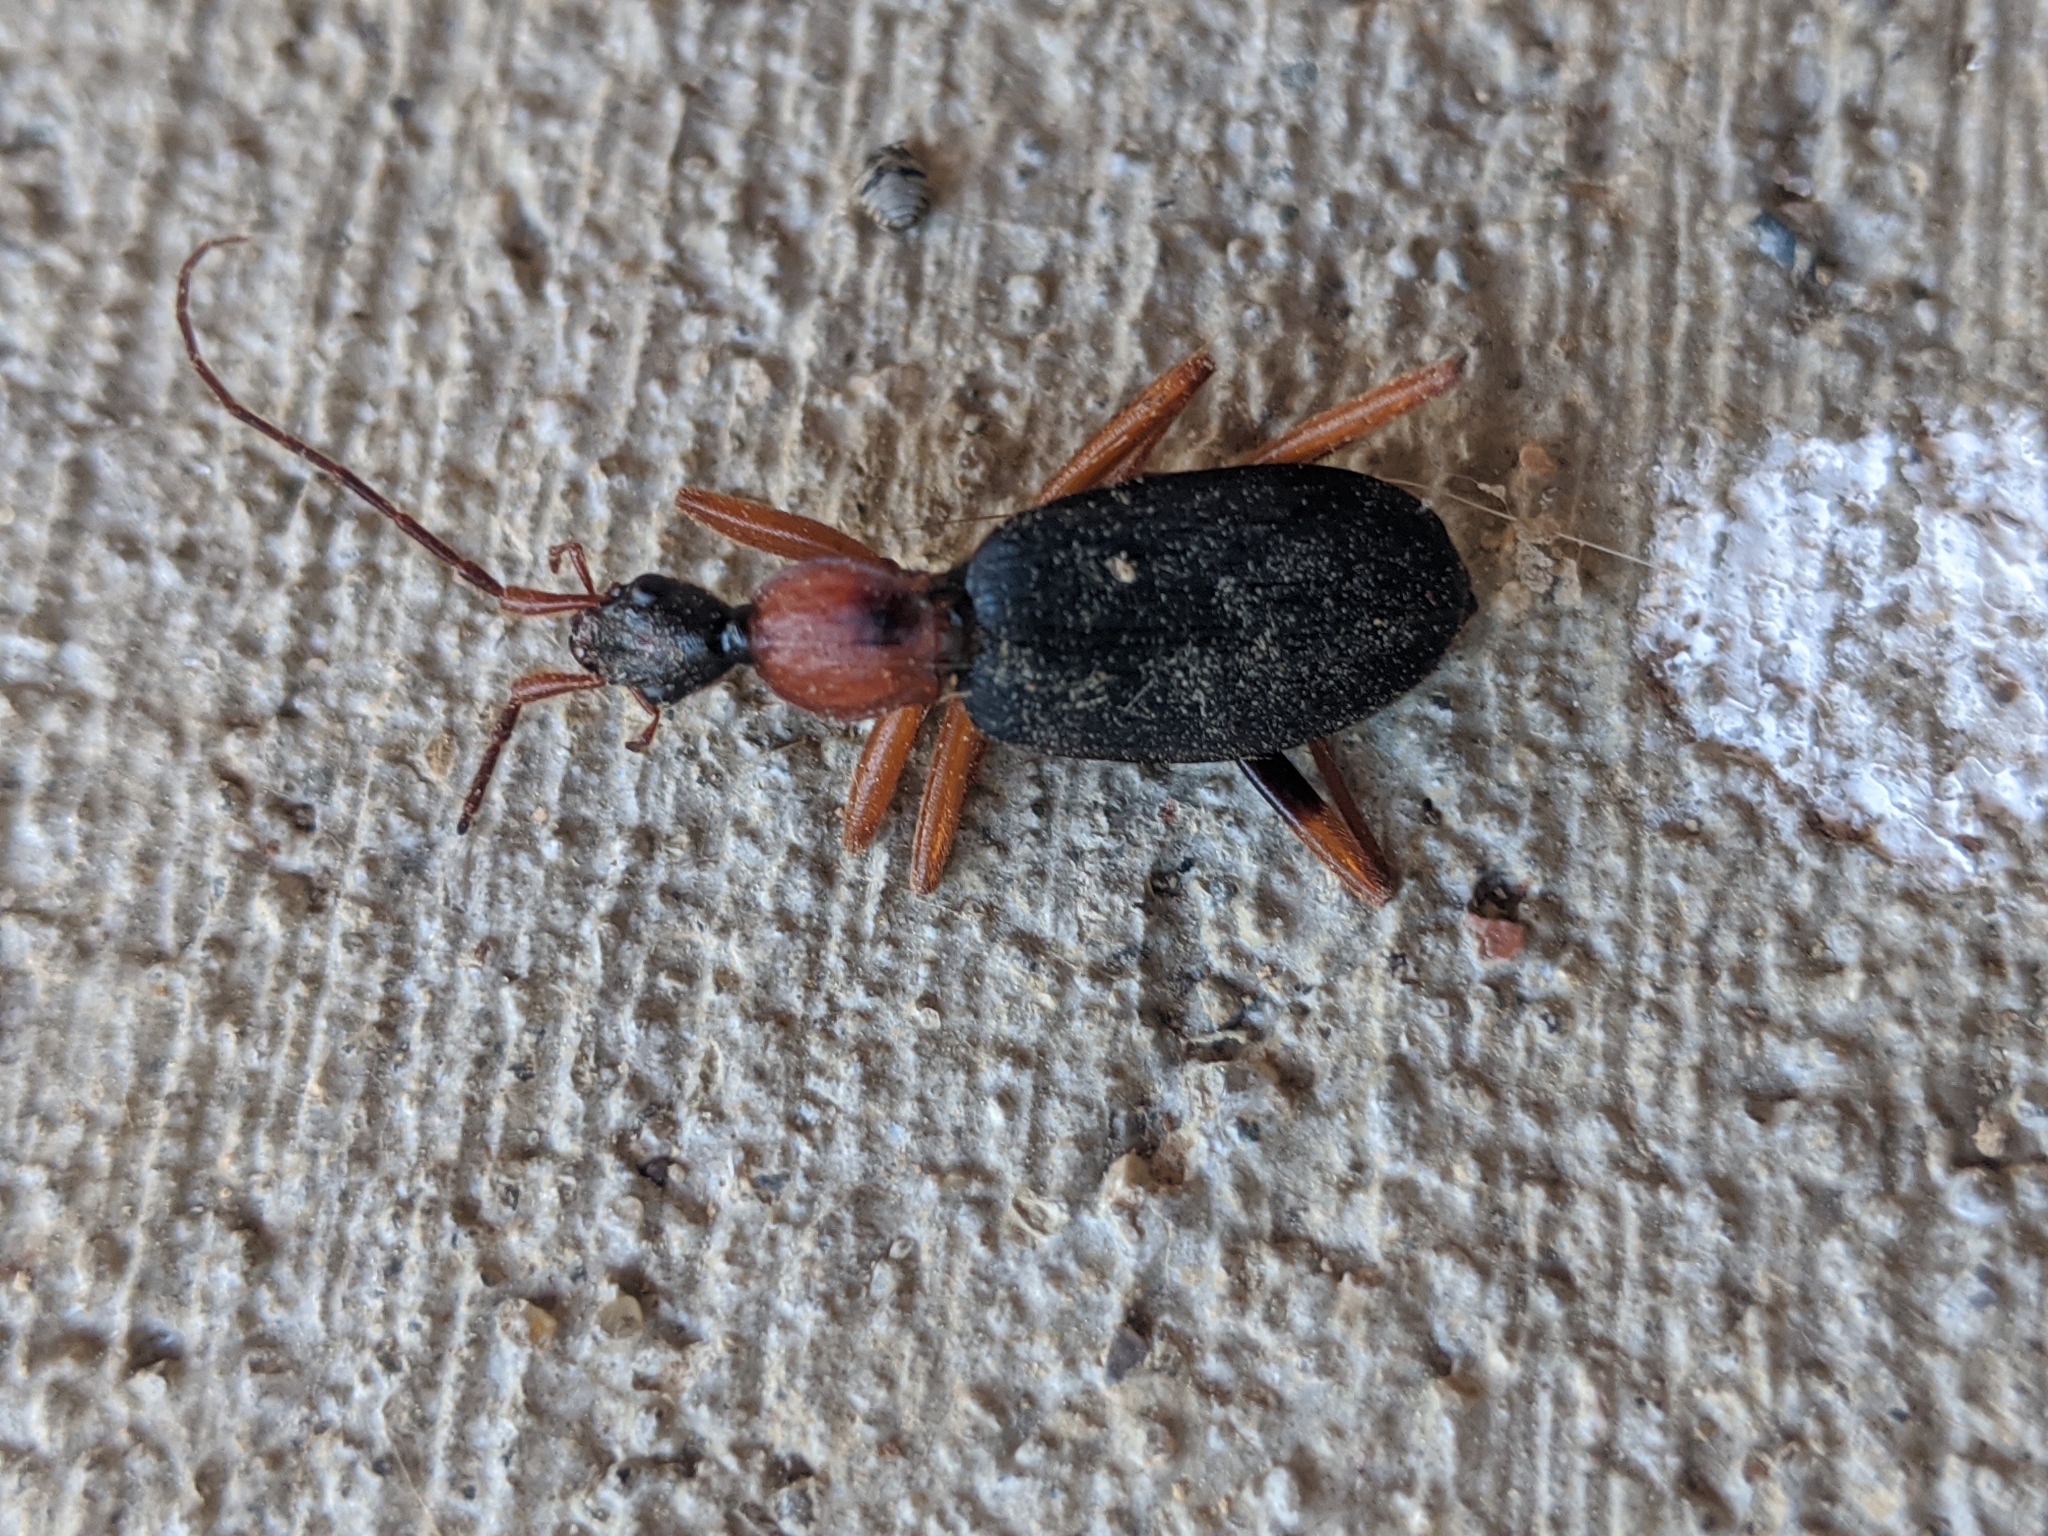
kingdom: Animalia
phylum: Arthropoda
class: Insecta
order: Coleoptera
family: Carabidae
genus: Galerita
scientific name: Galerita bicolor
